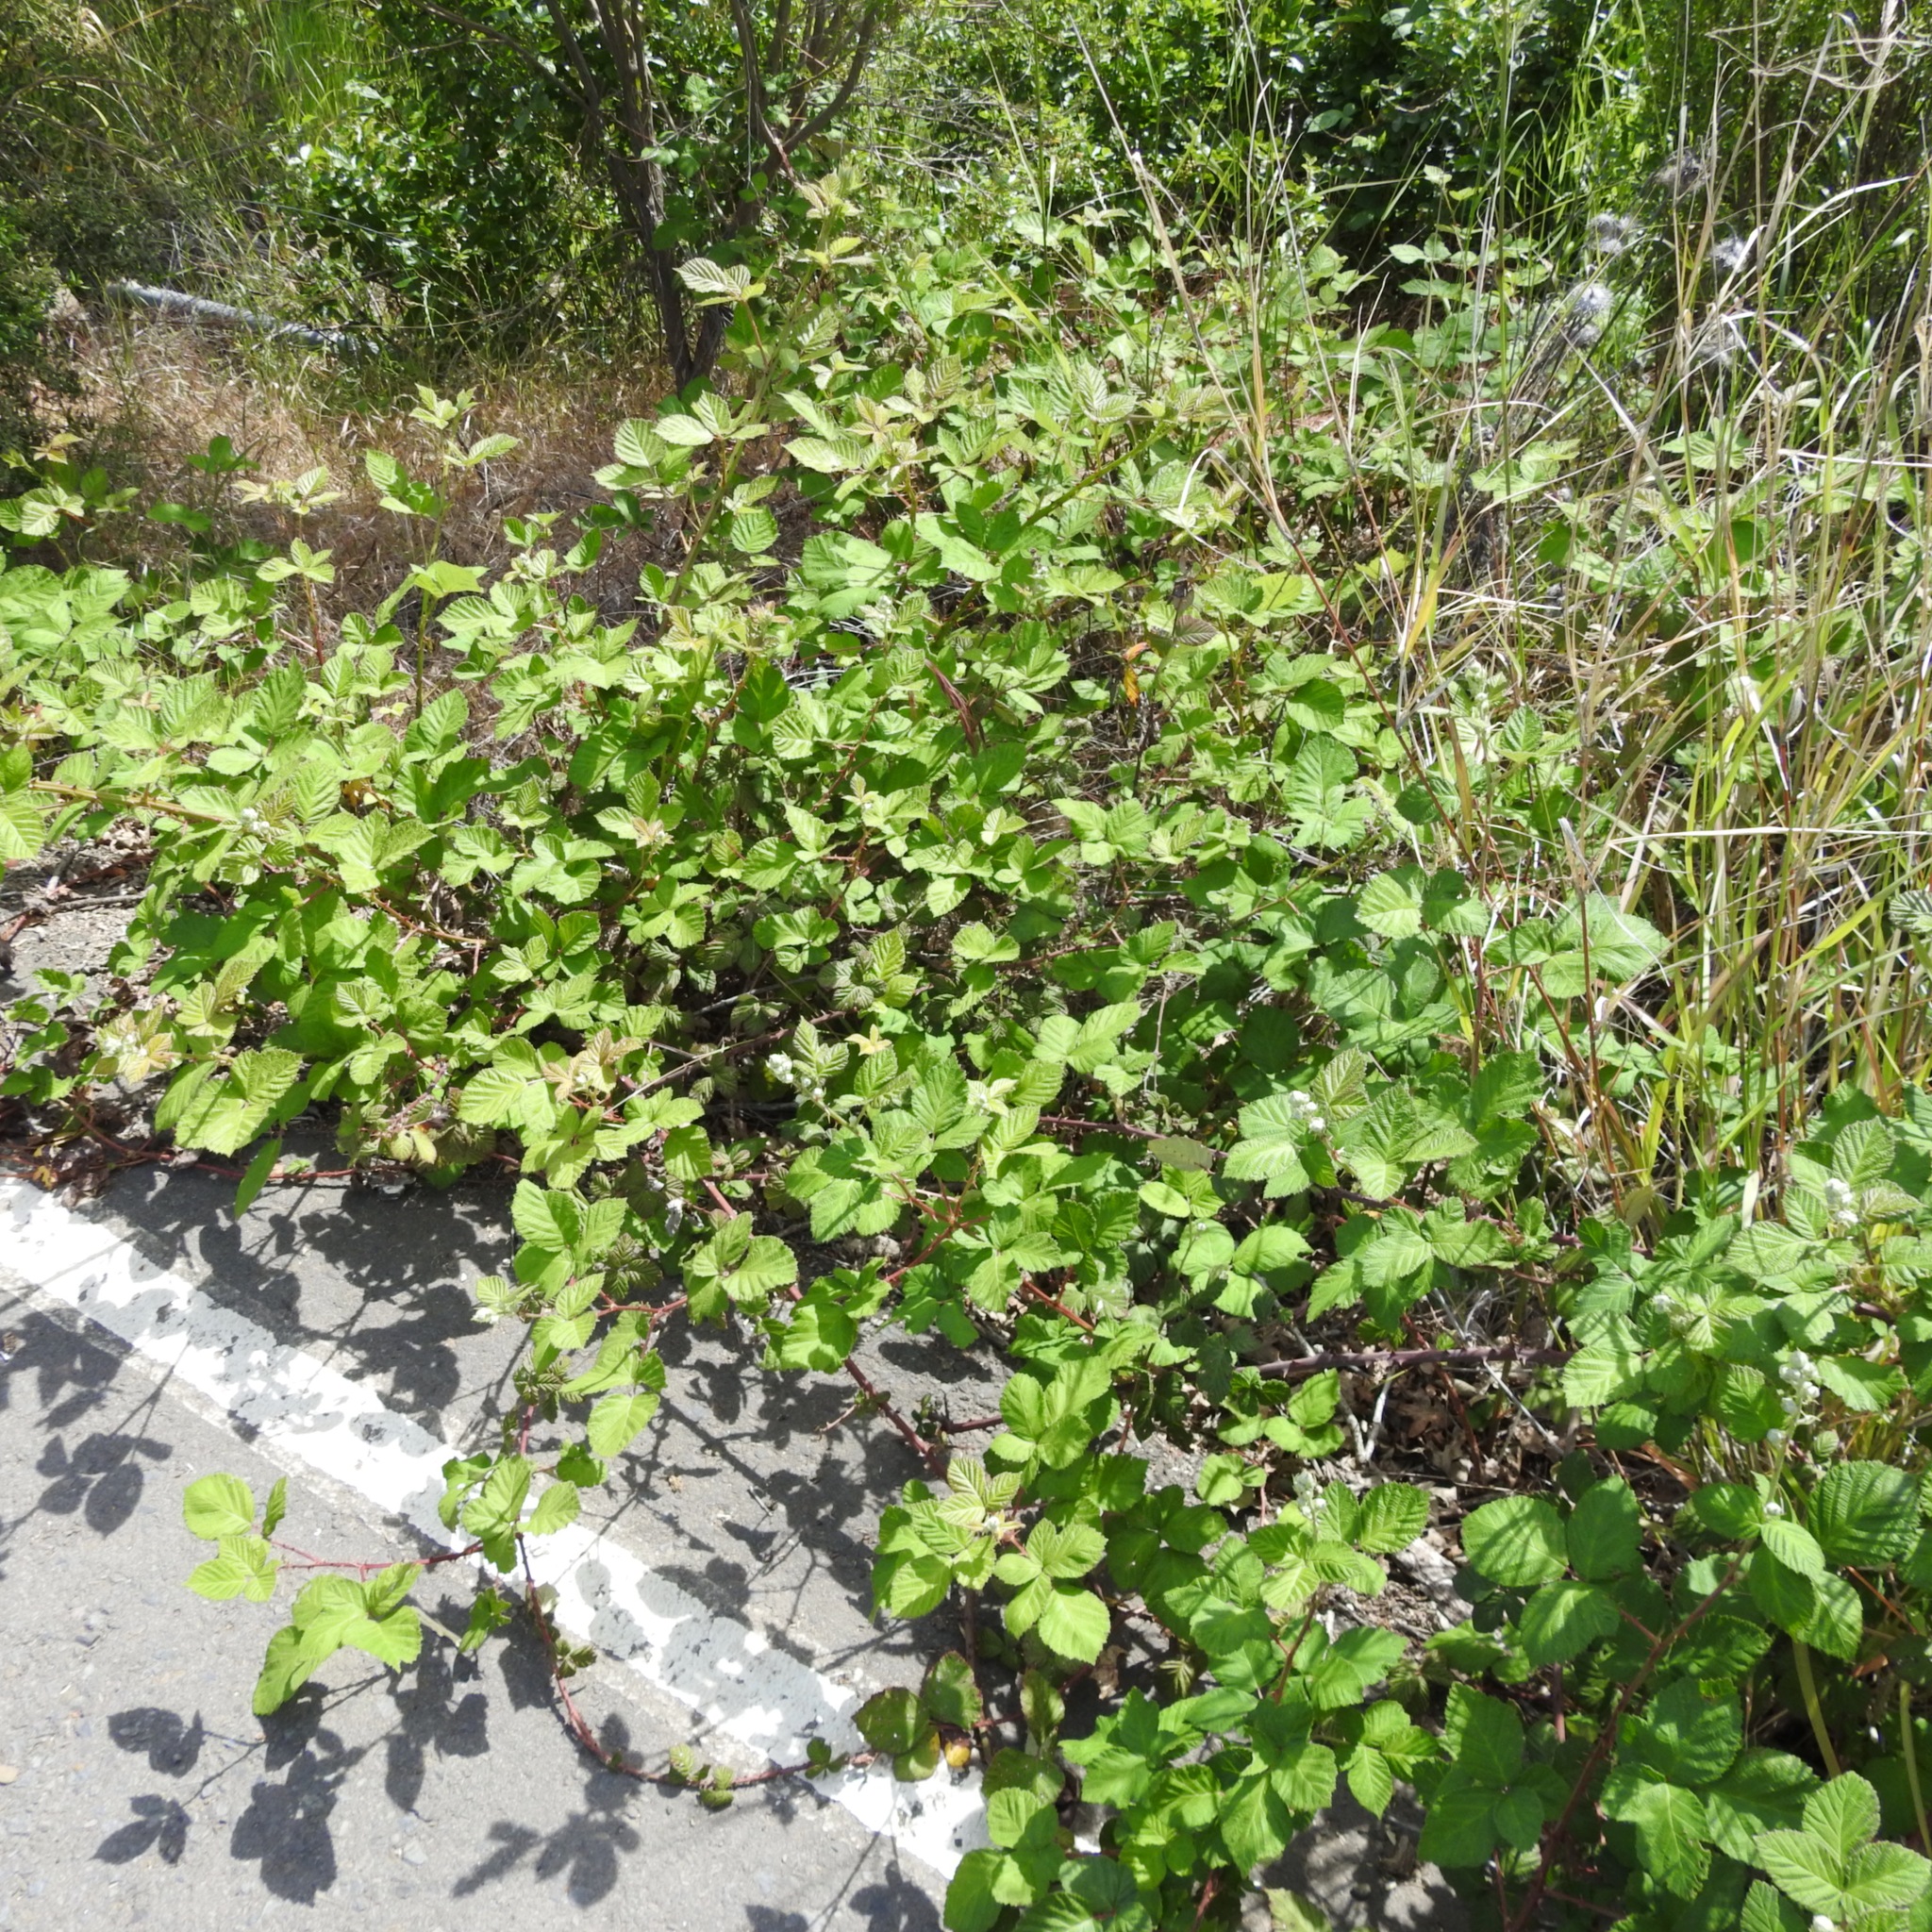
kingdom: Plantae
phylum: Tracheophyta
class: Magnoliopsida
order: Rosales
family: Rosaceae
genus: Rubus
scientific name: Rubus armeniacus
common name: Himalayan blackberry
